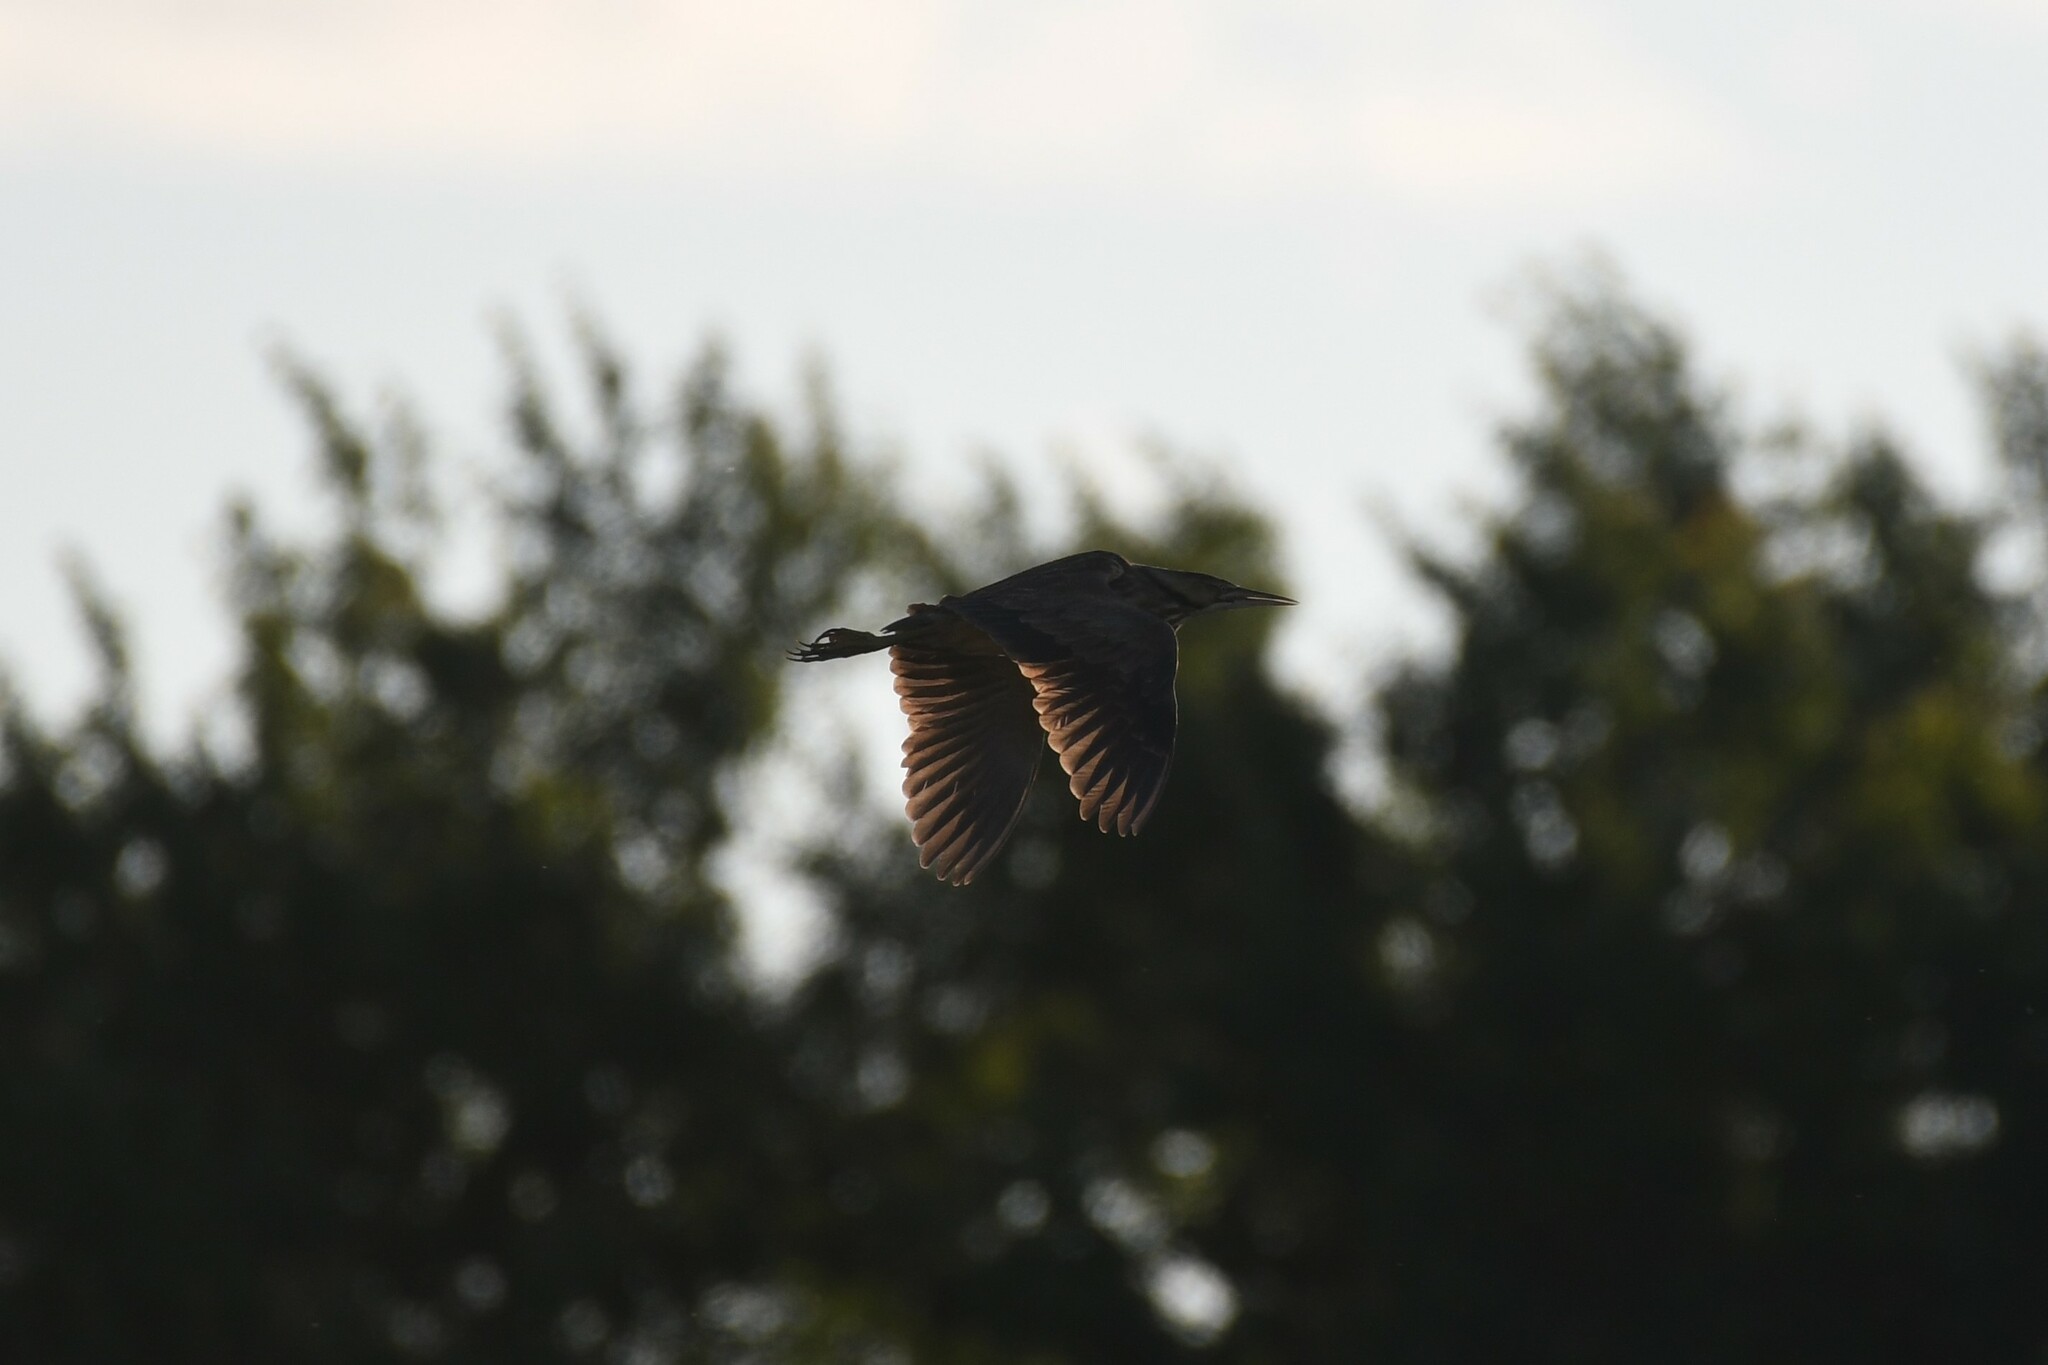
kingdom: Animalia
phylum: Chordata
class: Aves
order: Pelecaniformes
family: Ardeidae
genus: Botaurus
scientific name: Botaurus lentiginosus
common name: American bittern
